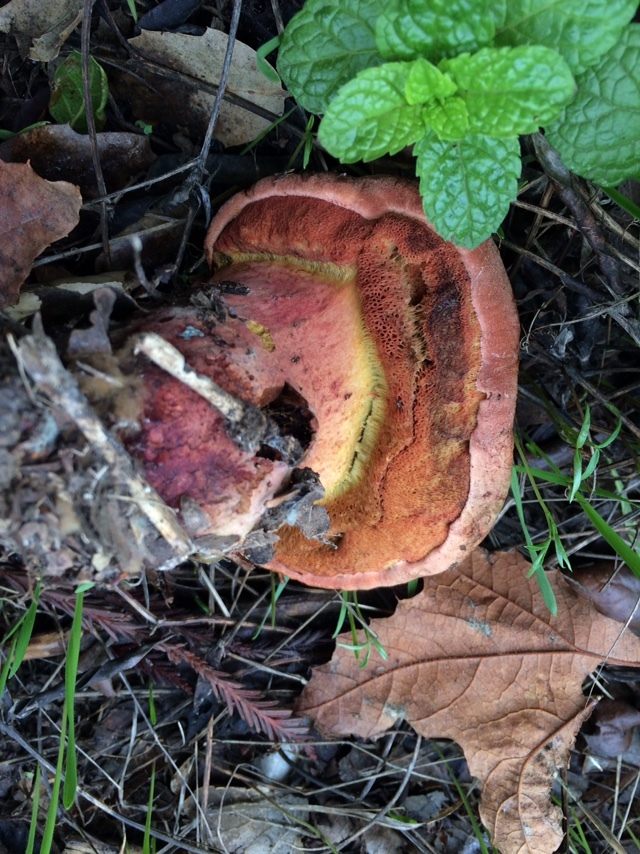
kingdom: Fungi
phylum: Basidiomycota
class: Agaricomycetes
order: Boletales
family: Boletaceae
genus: Suillellus
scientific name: Suillellus amygdalinus
